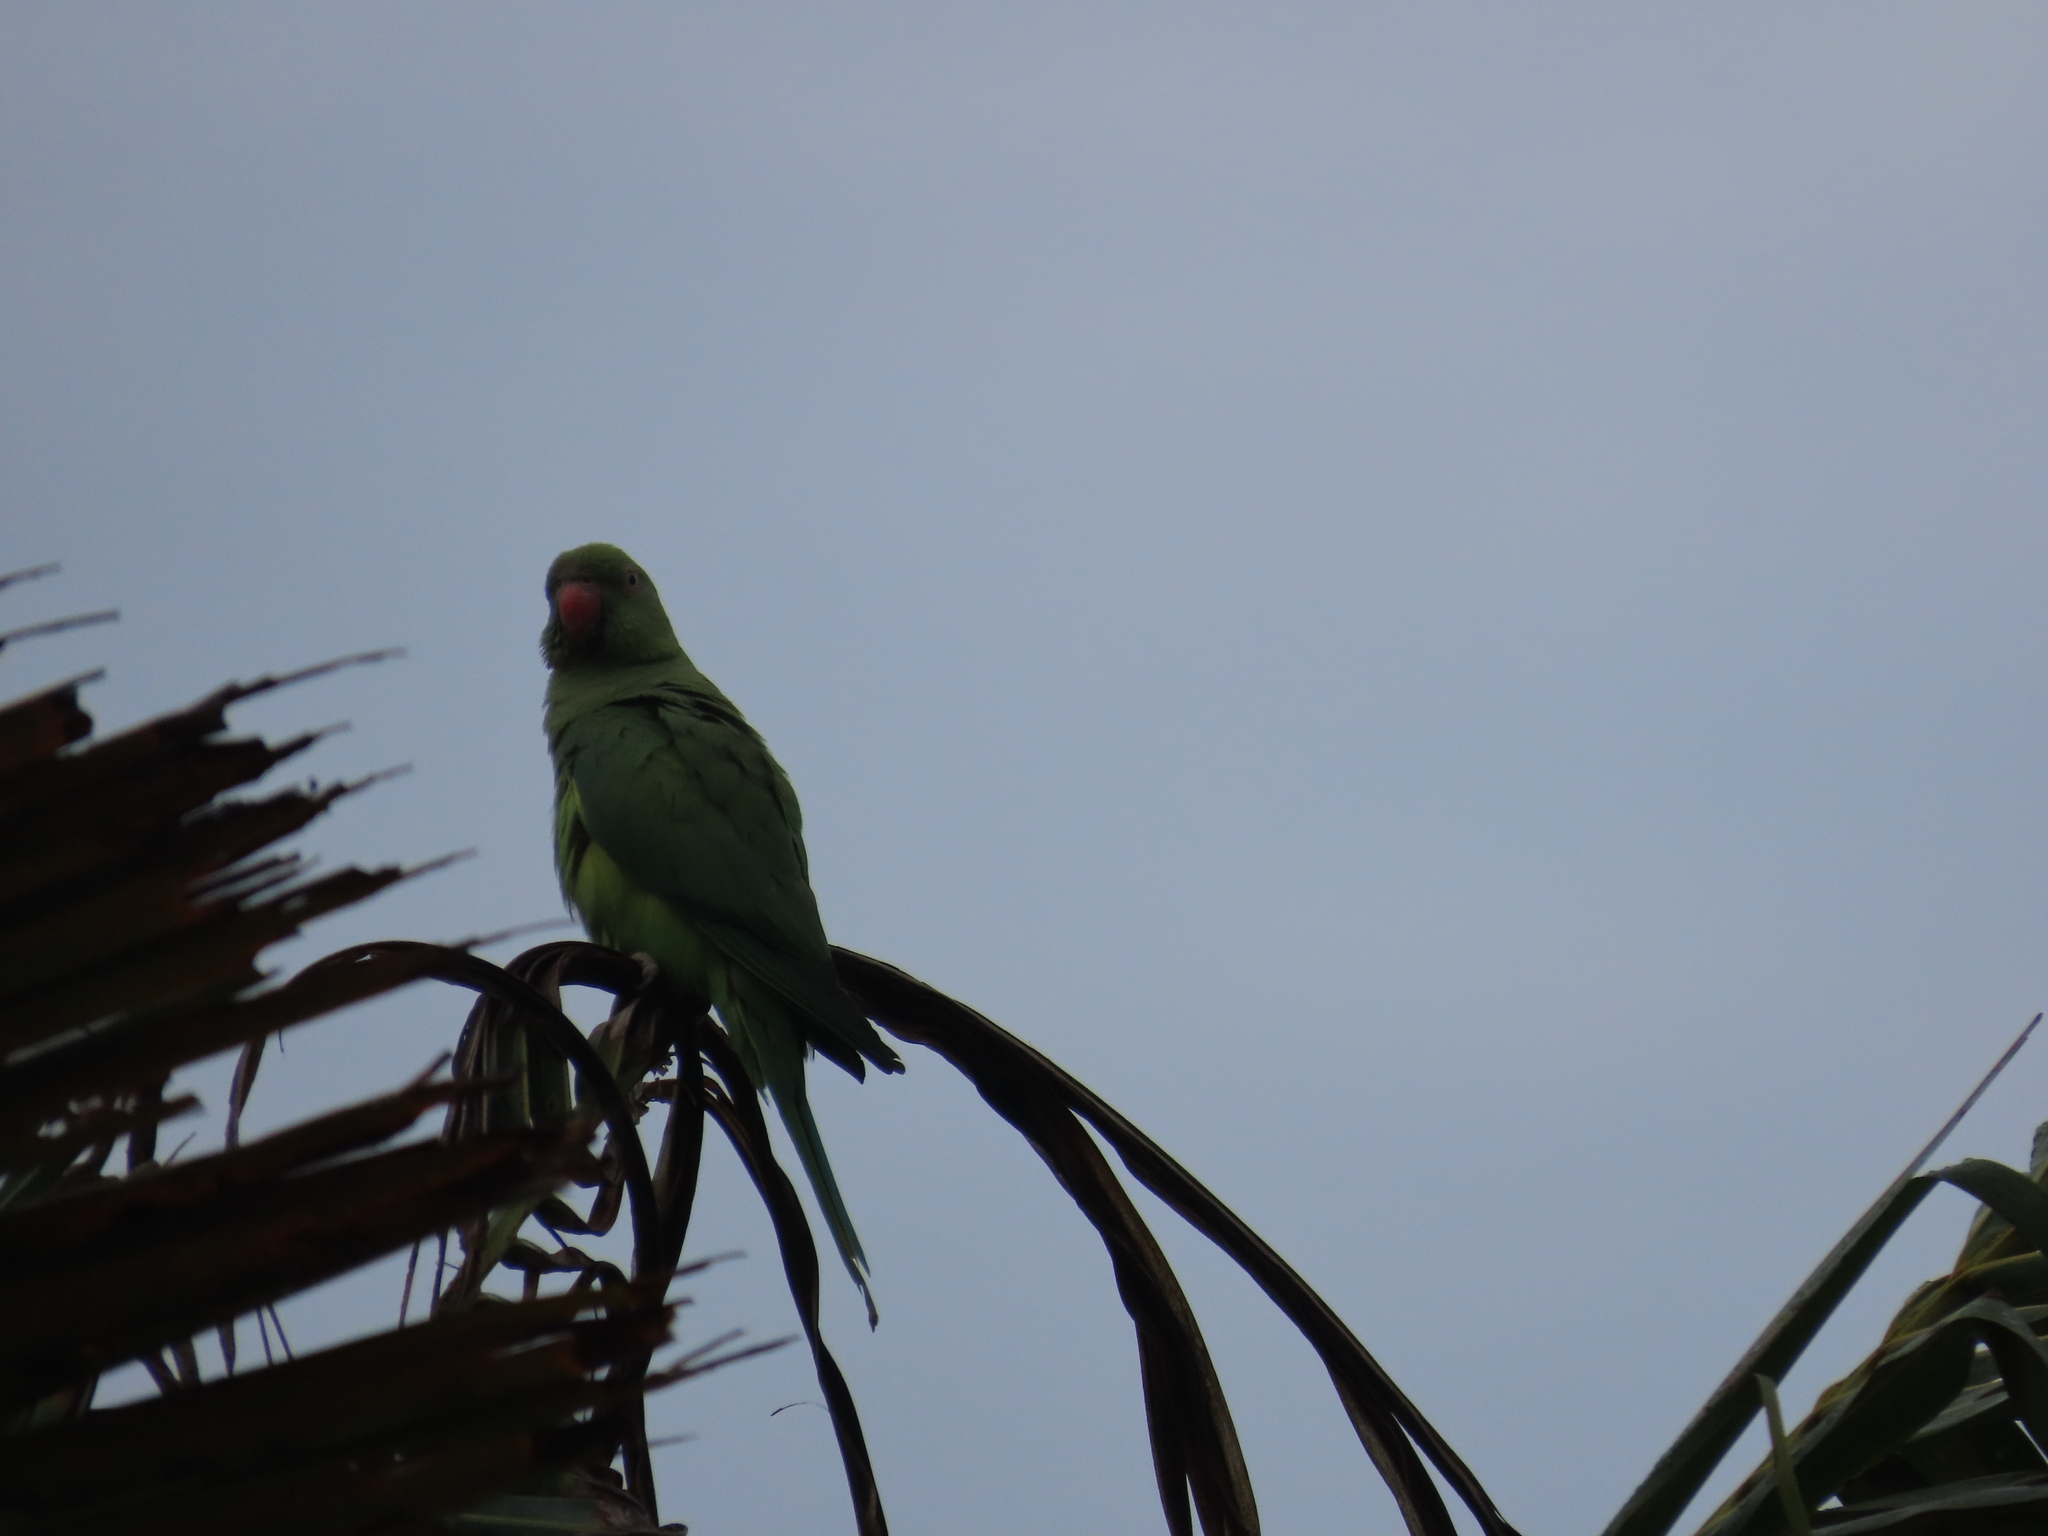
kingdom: Animalia
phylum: Chordata
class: Aves
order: Psittaciformes
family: Psittacidae
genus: Psittacula
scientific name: Psittacula krameri
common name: Rose-ringed parakeet
